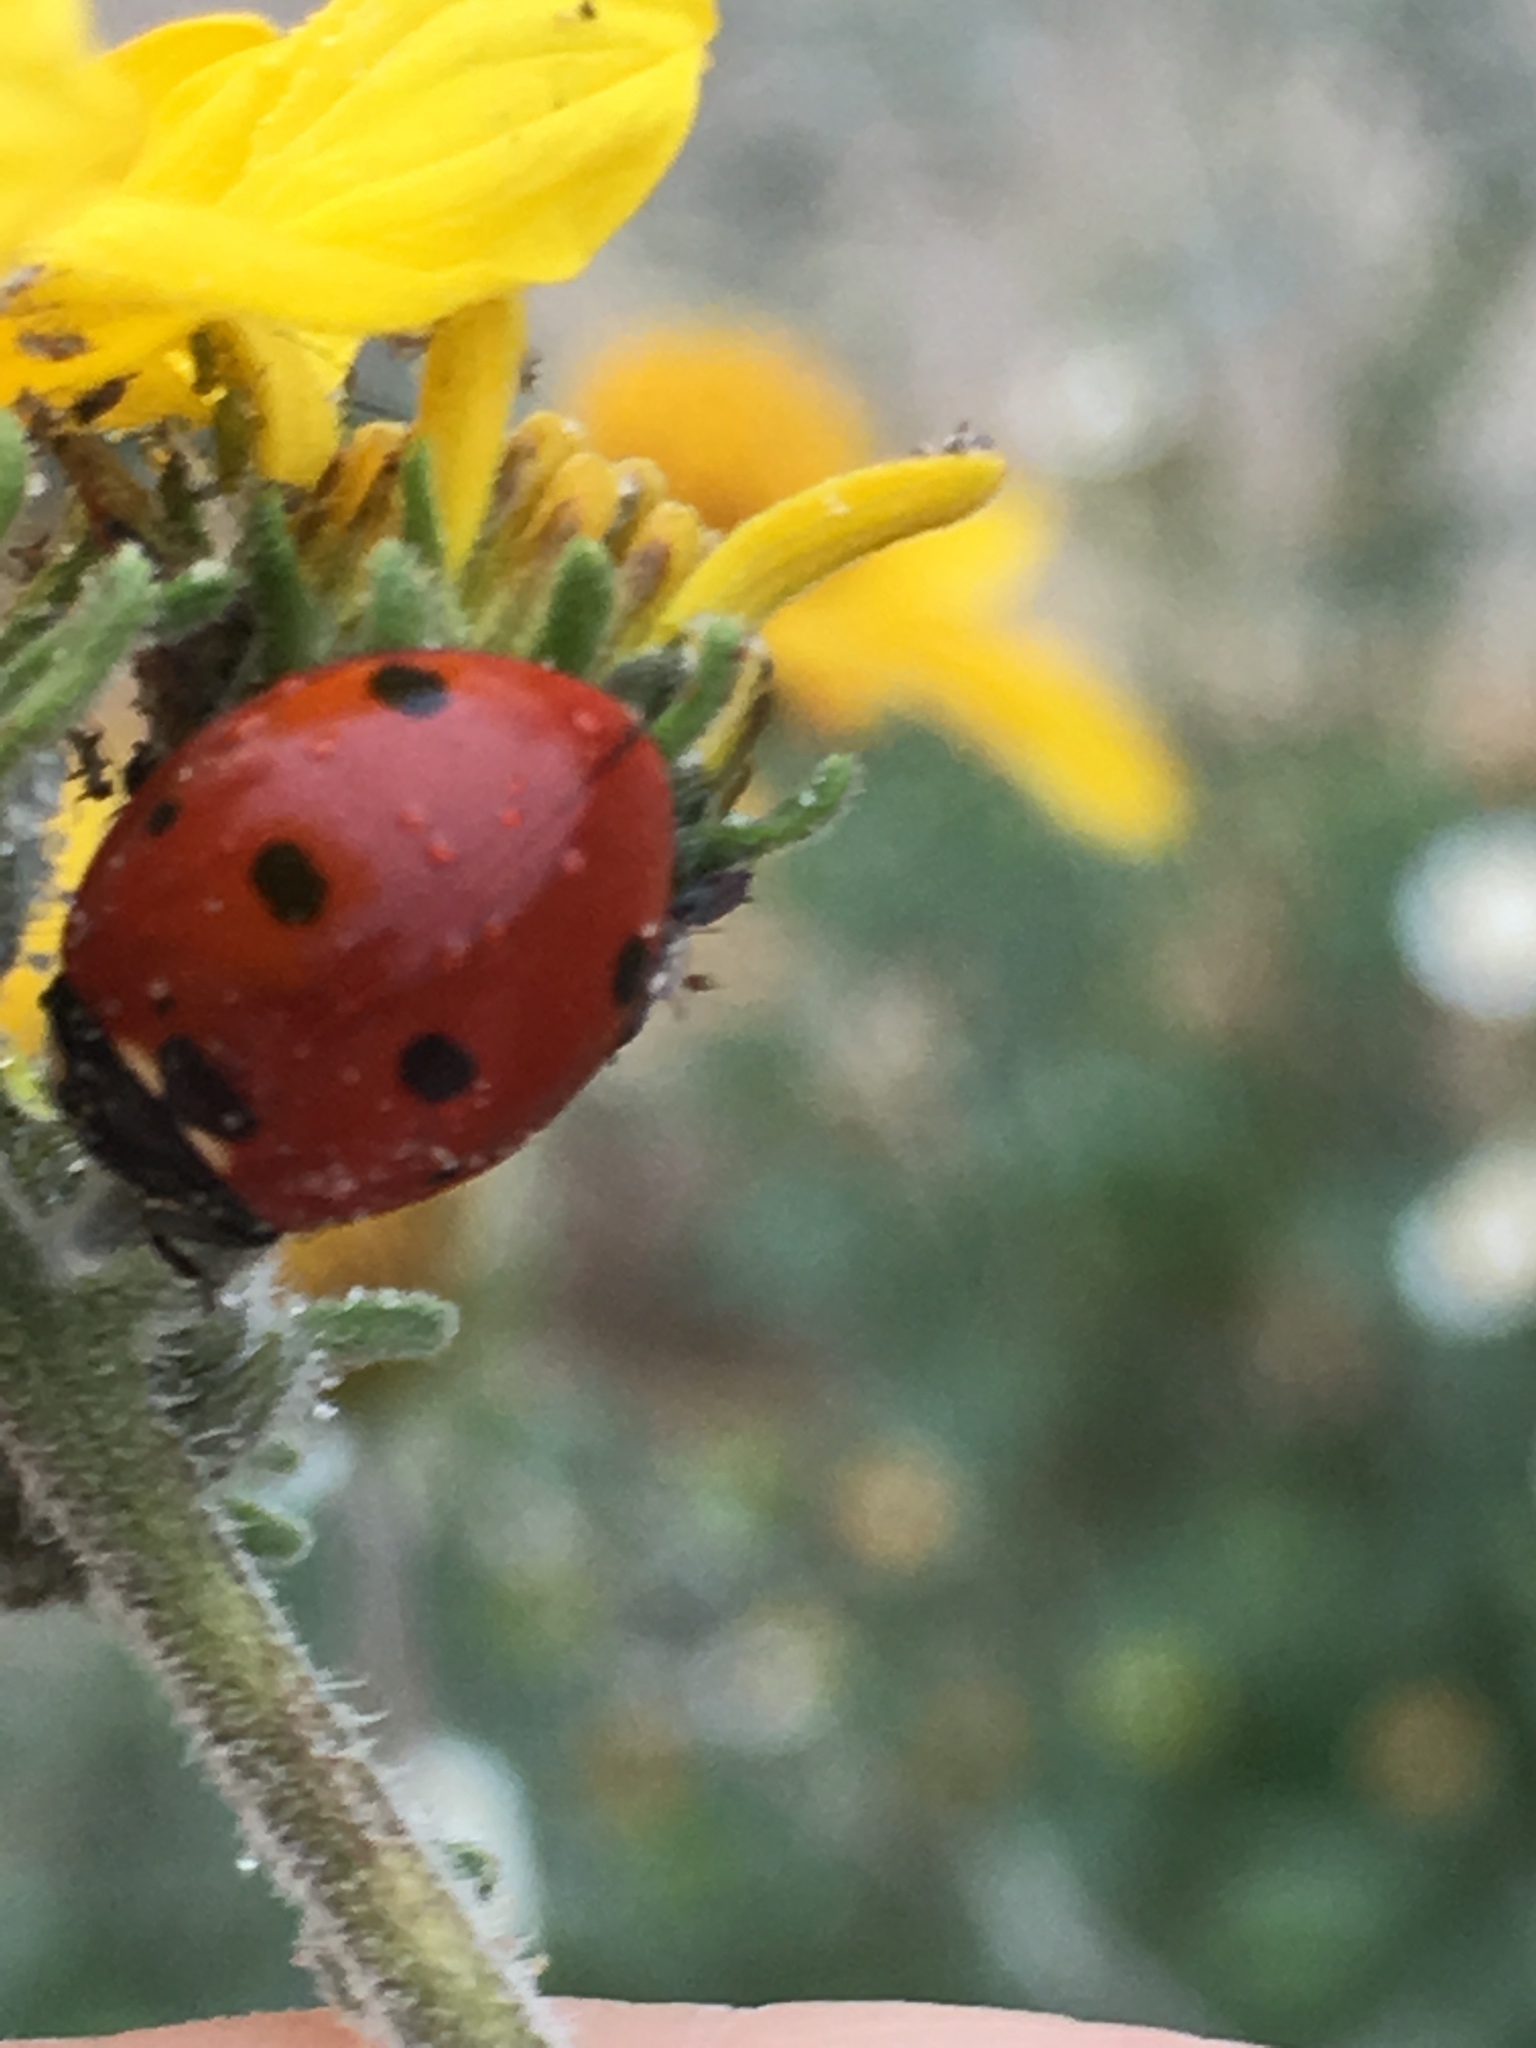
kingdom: Animalia
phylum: Arthropoda
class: Insecta
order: Coleoptera
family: Coccinellidae
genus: Coccinella
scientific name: Coccinella septempunctata
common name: Sevenspotted lady beetle
